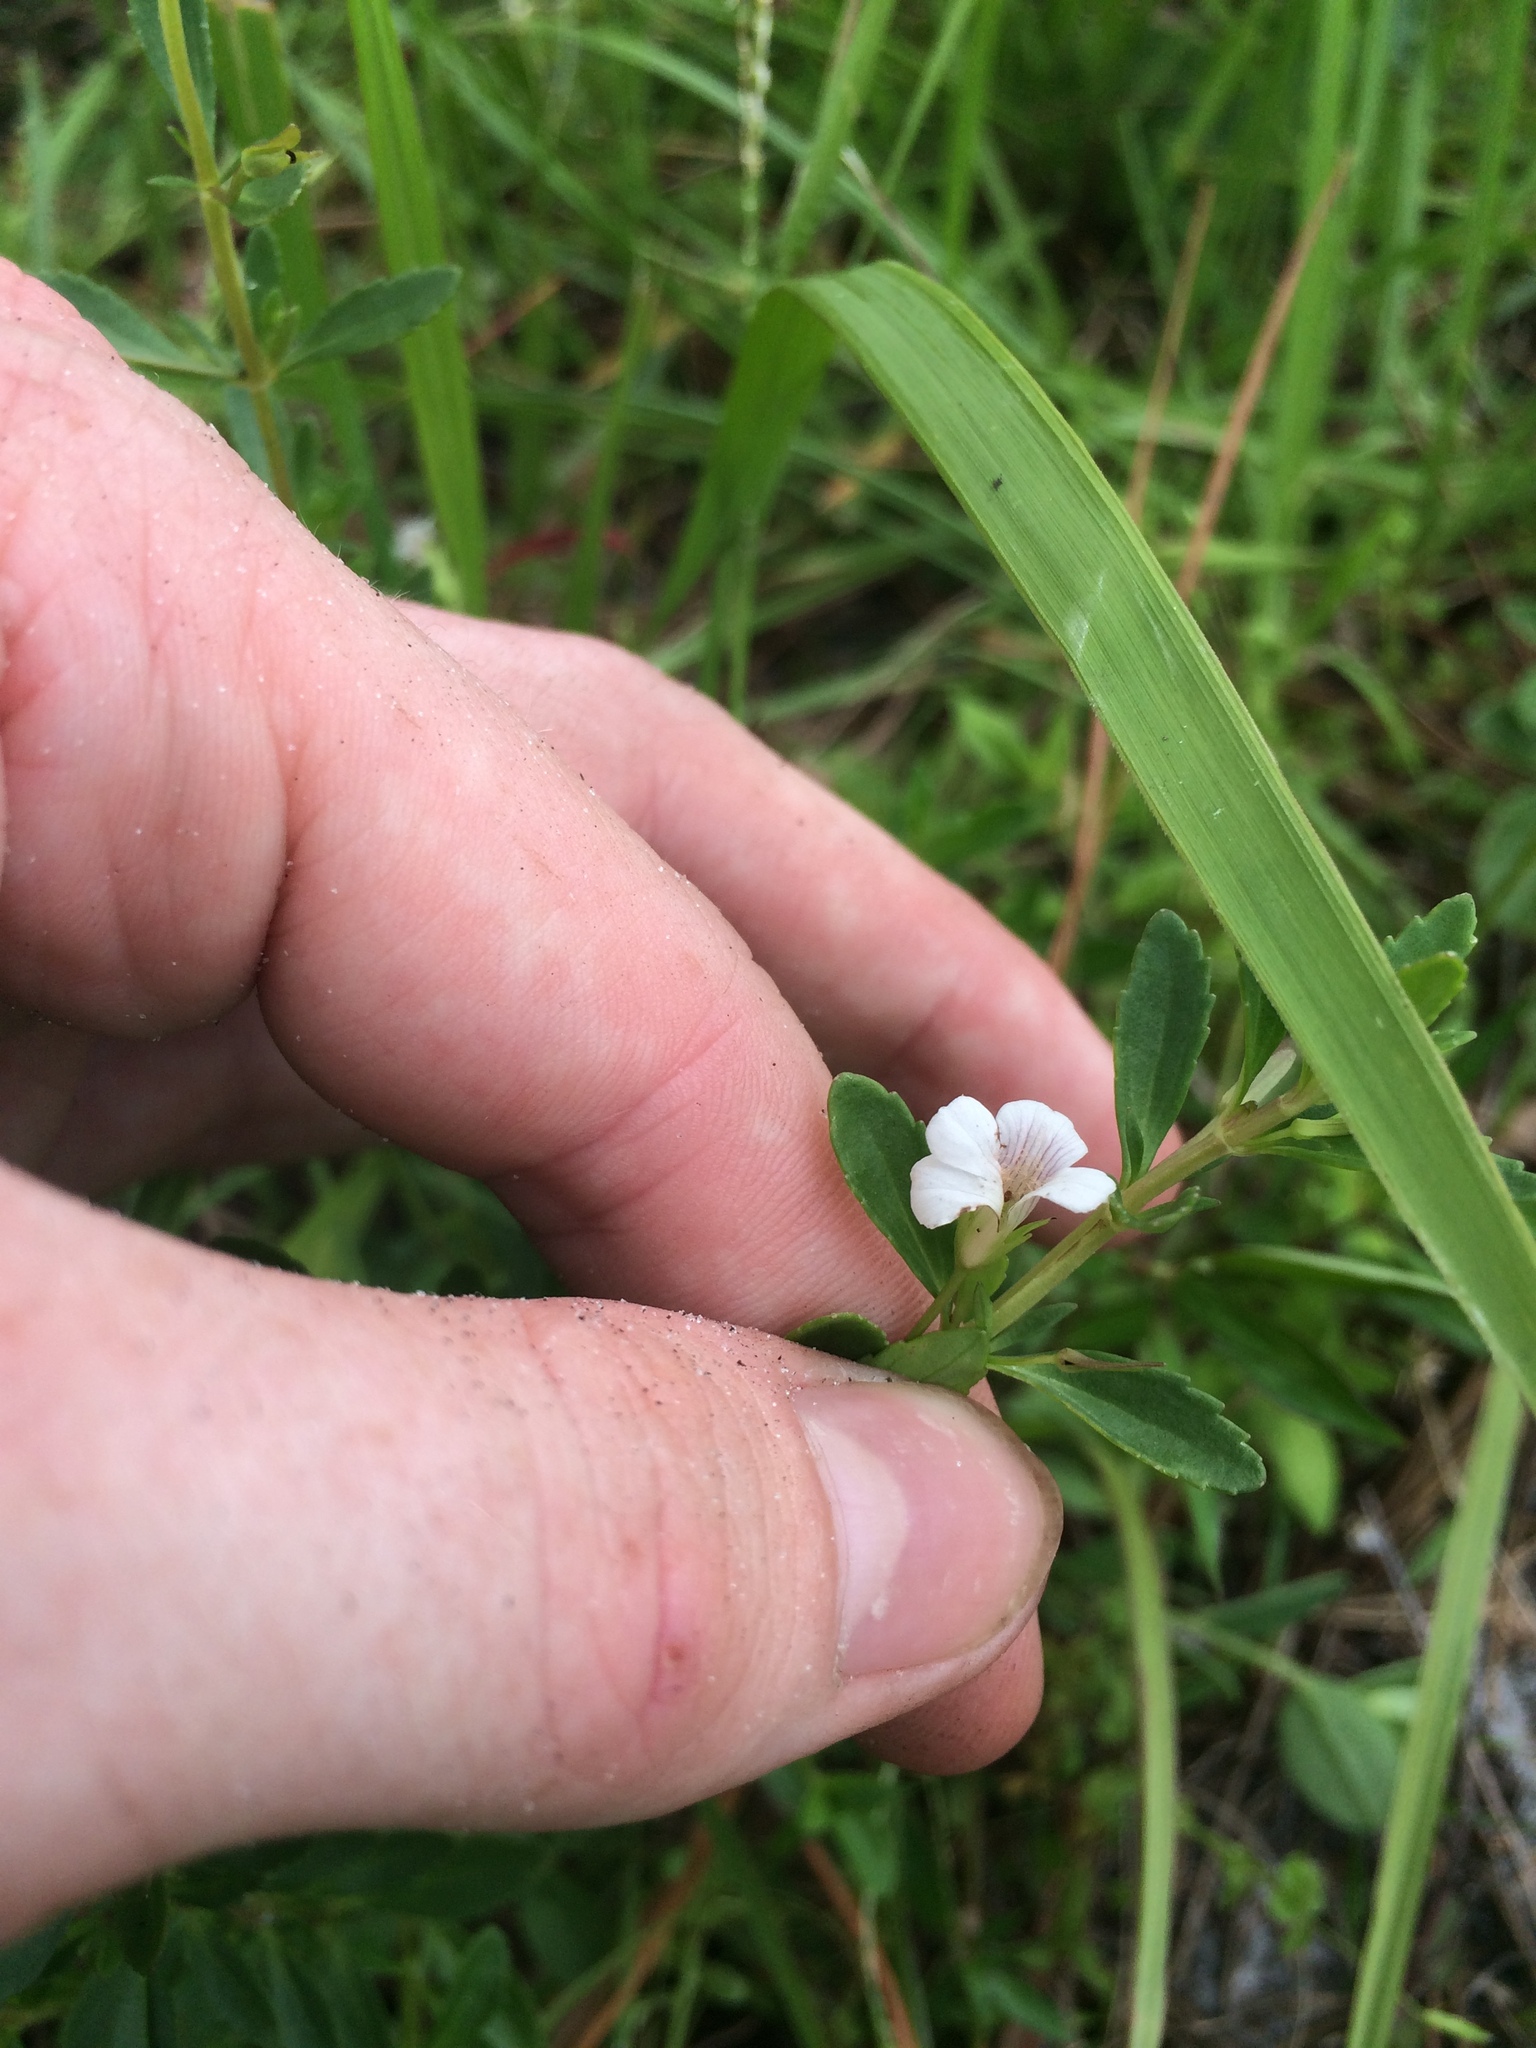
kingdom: Plantae
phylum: Tracheophyta
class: Magnoliopsida
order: Lamiales
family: Plantaginaceae
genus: Mecardonia
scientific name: Mecardonia acuminata
